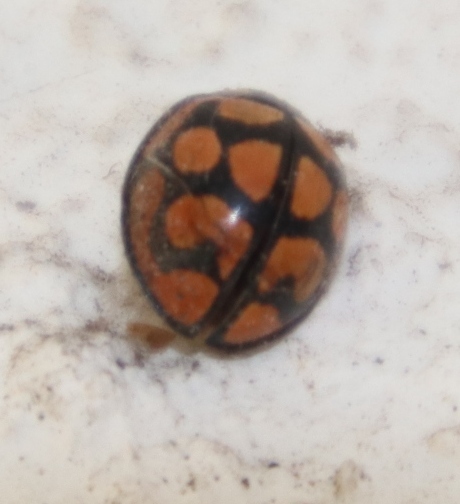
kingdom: Animalia
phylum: Arthropoda
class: Insecta
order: Coleoptera
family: Coccinellidae
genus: Cheilomenes
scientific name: Cheilomenes lunata
